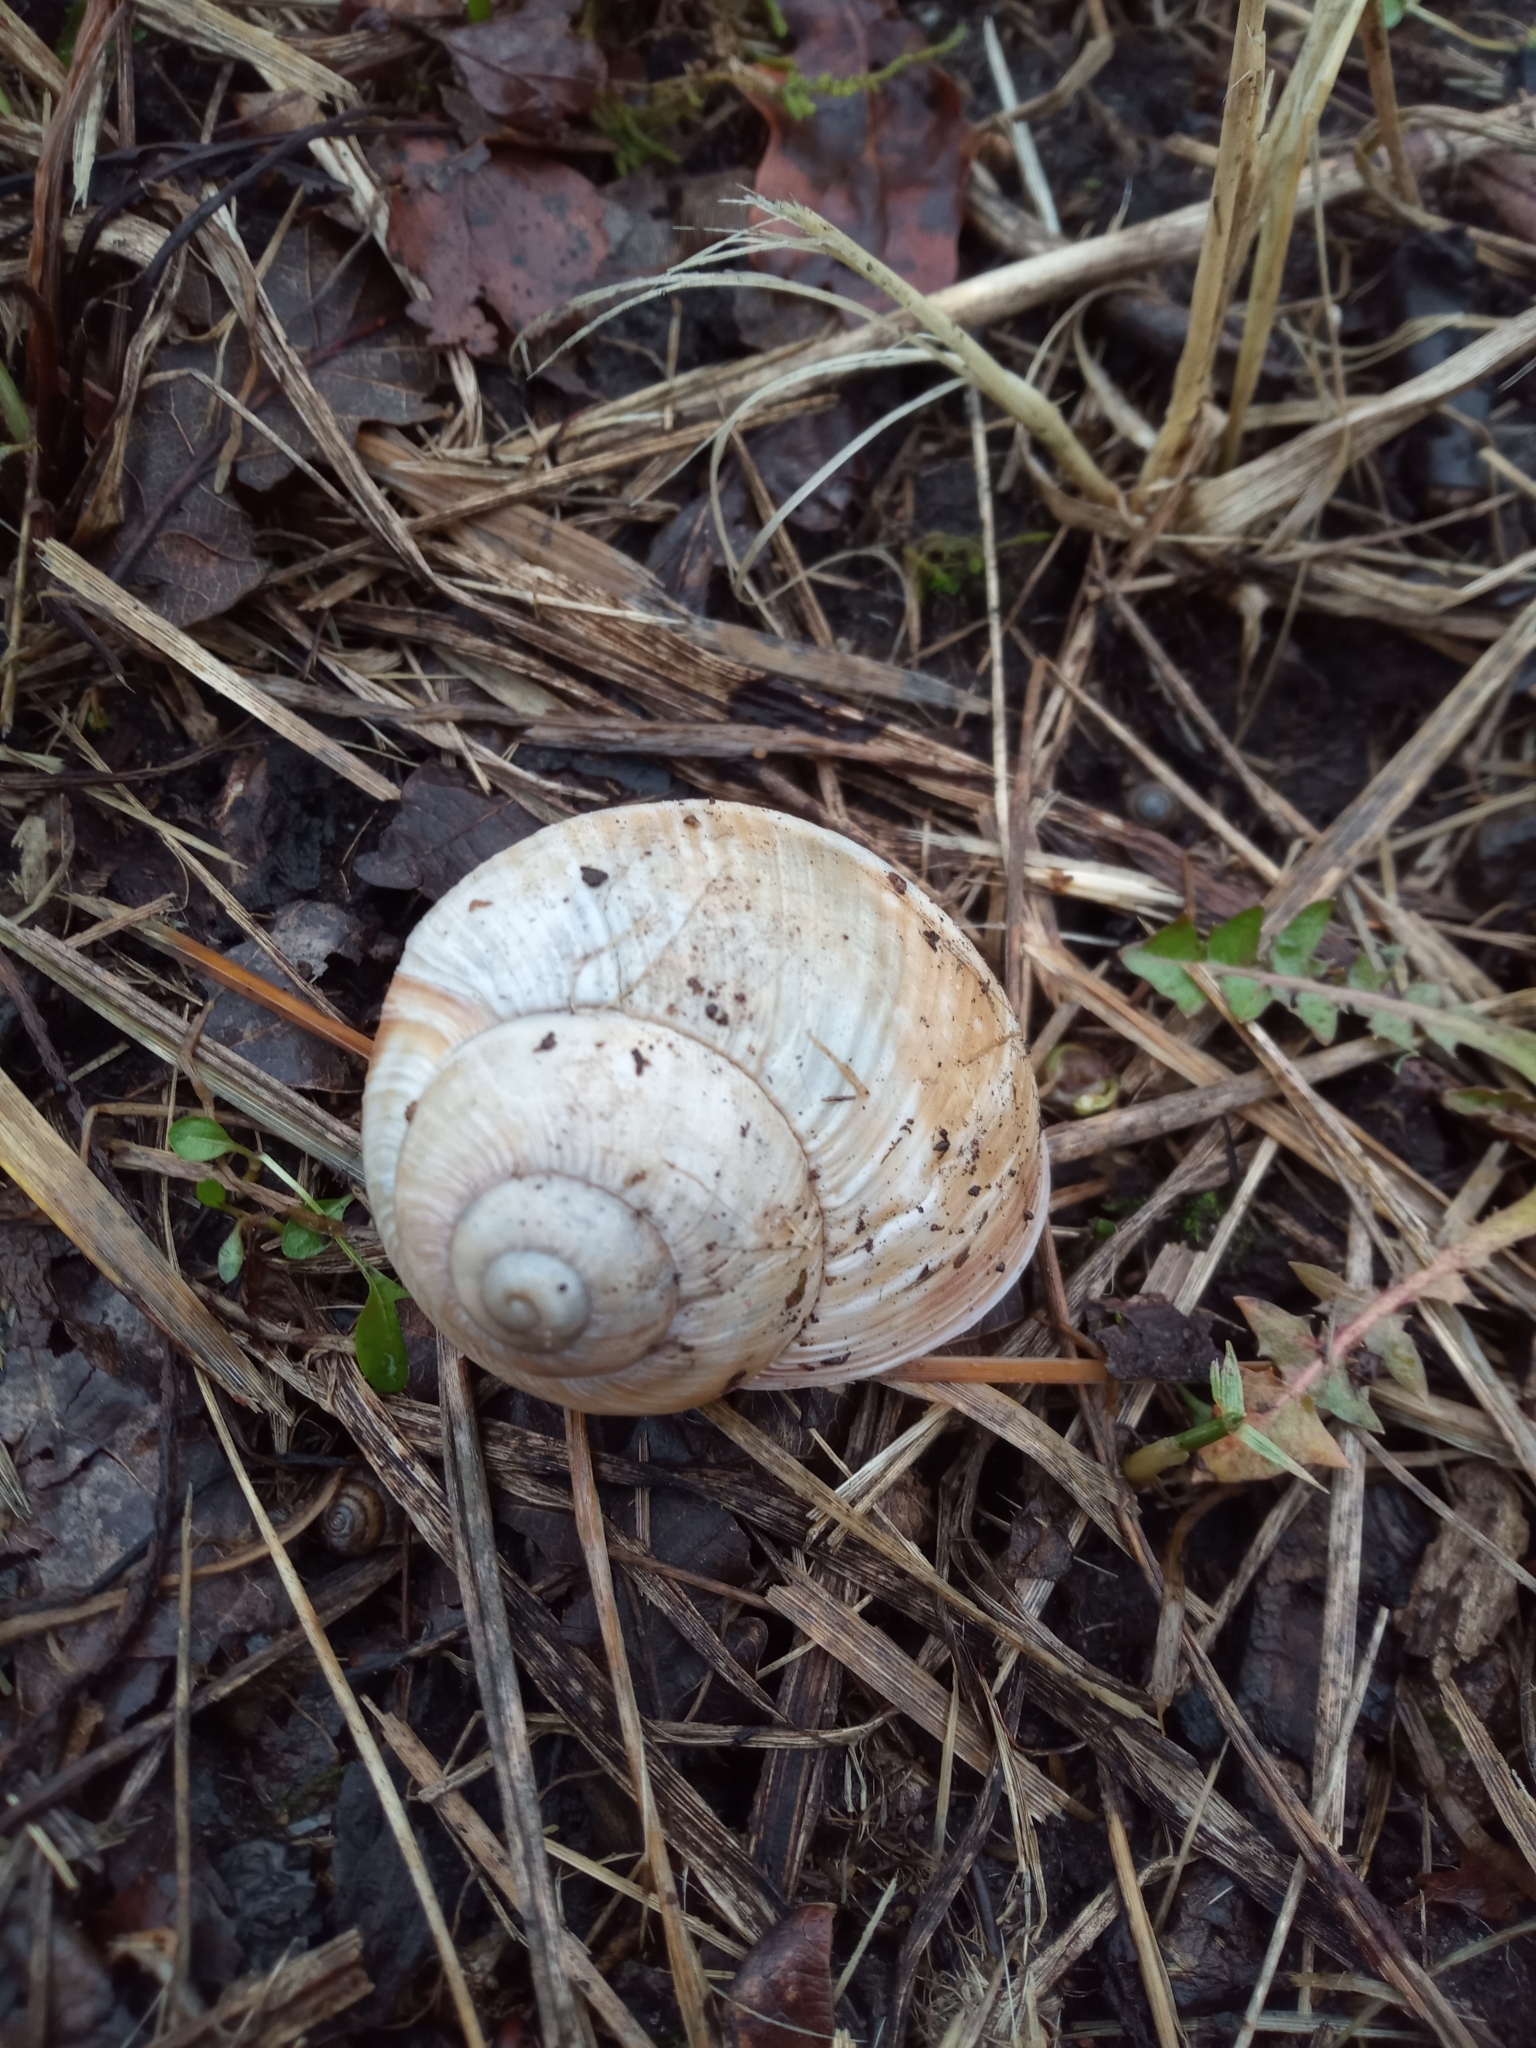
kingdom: Animalia
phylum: Mollusca
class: Gastropoda
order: Stylommatophora
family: Helicidae
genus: Helix
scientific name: Helix pomatia
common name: Roman snail
